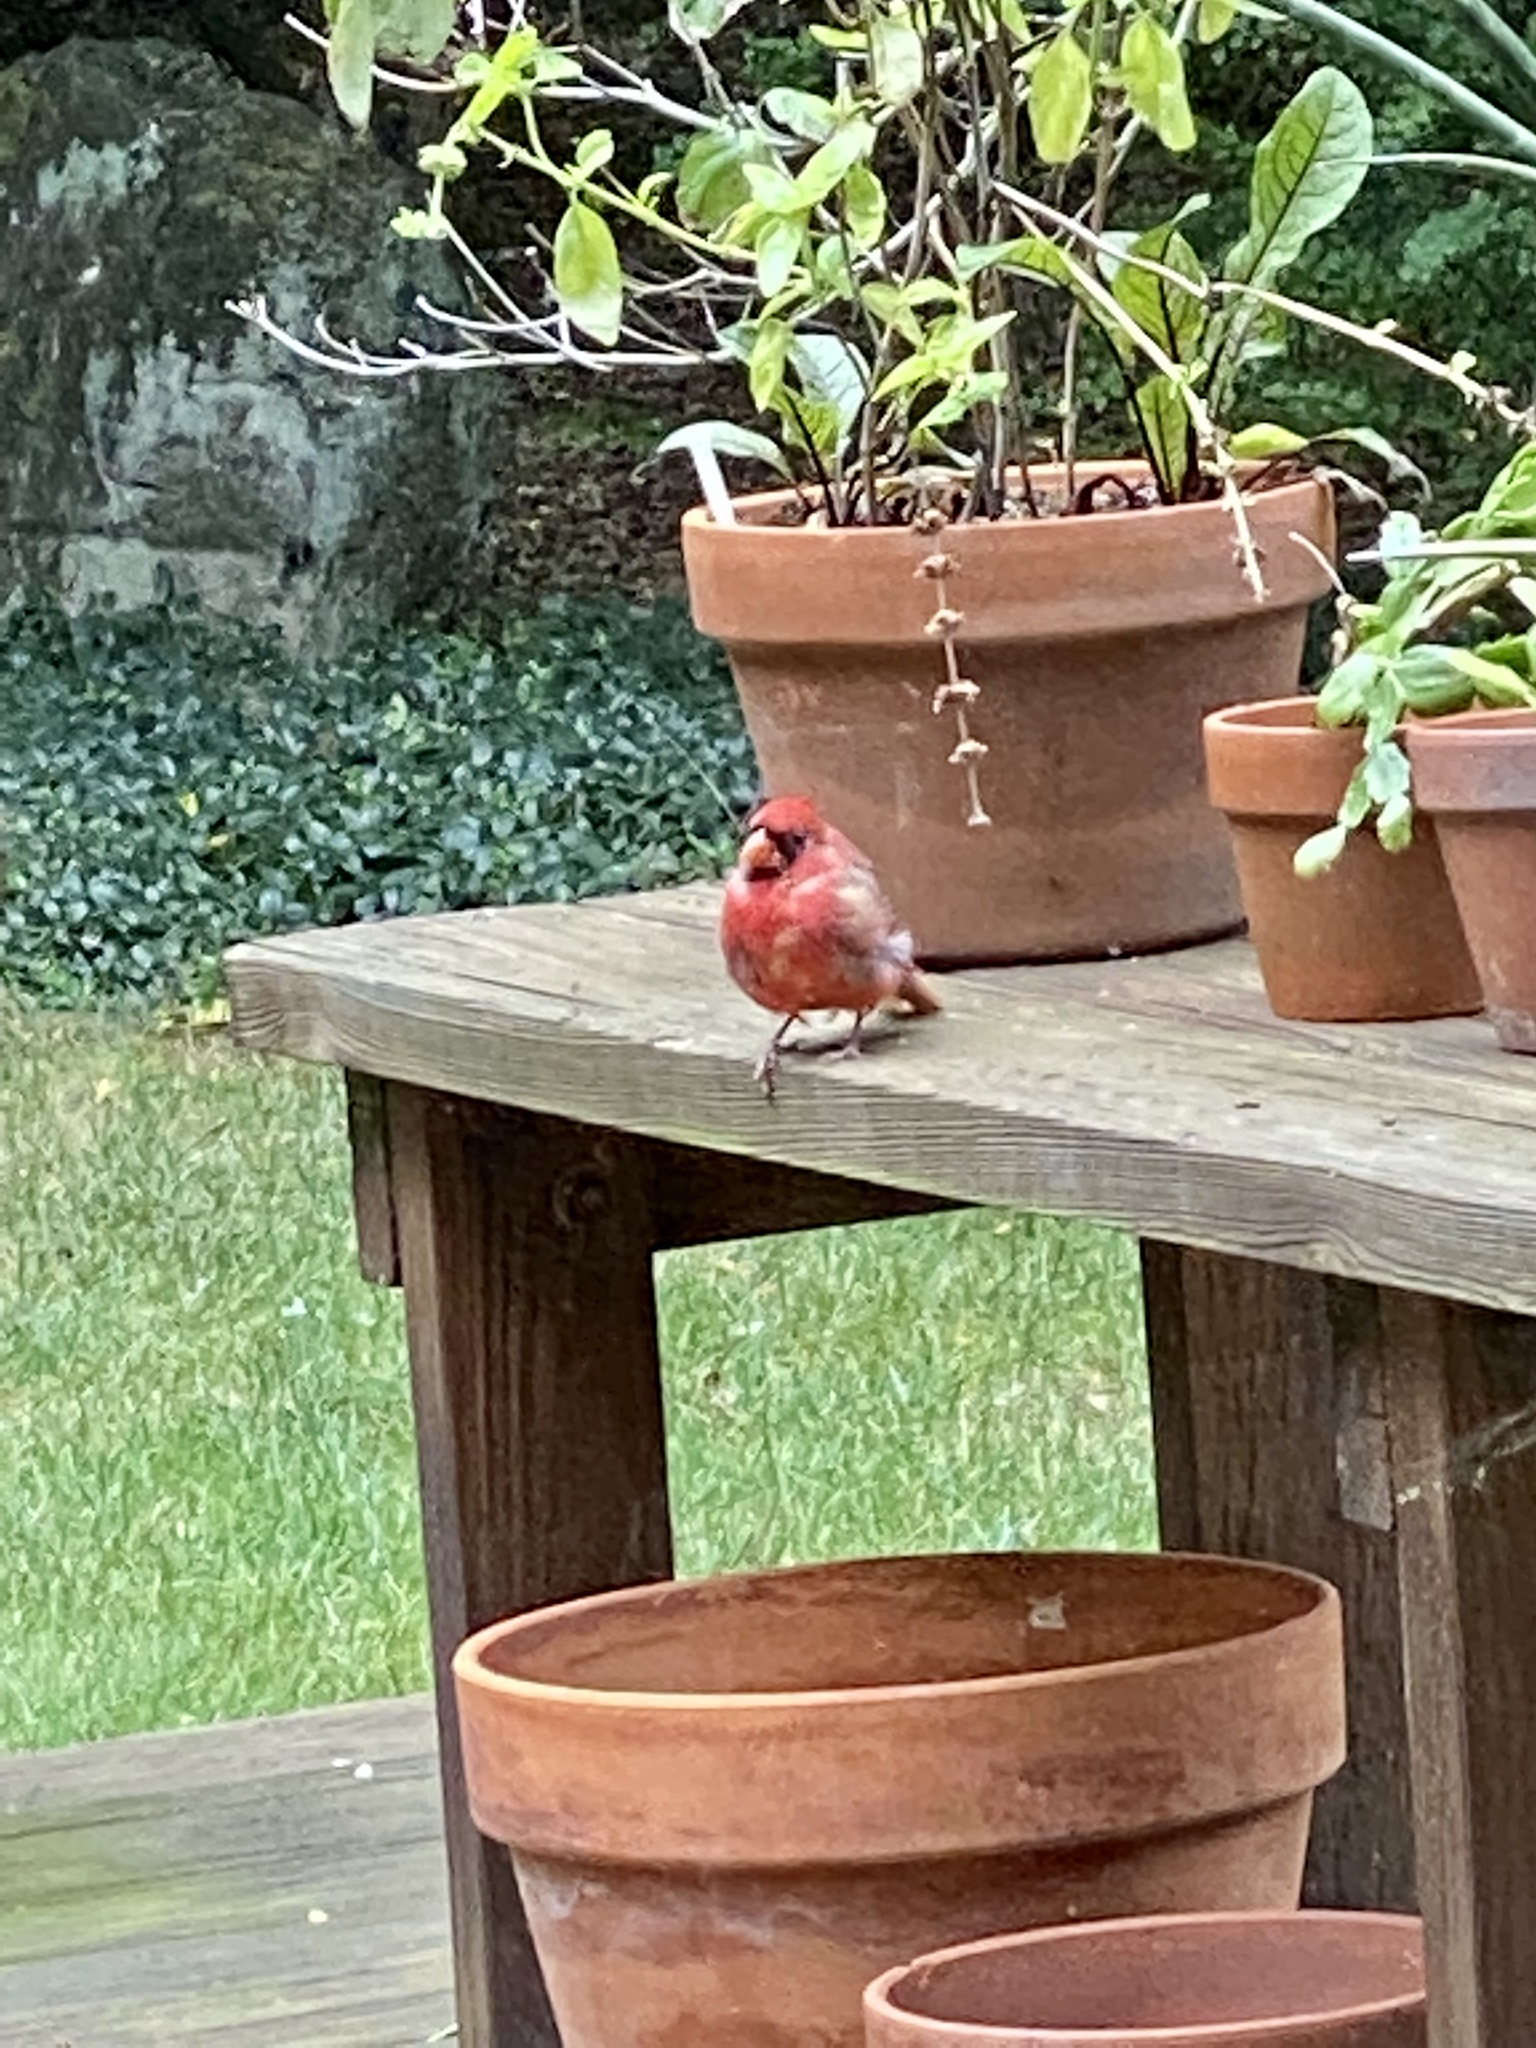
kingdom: Animalia
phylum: Chordata
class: Aves
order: Passeriformes
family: Cardinalidae
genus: Cardinalis
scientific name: Cardinalis cardinalis
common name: Northern cardinal
